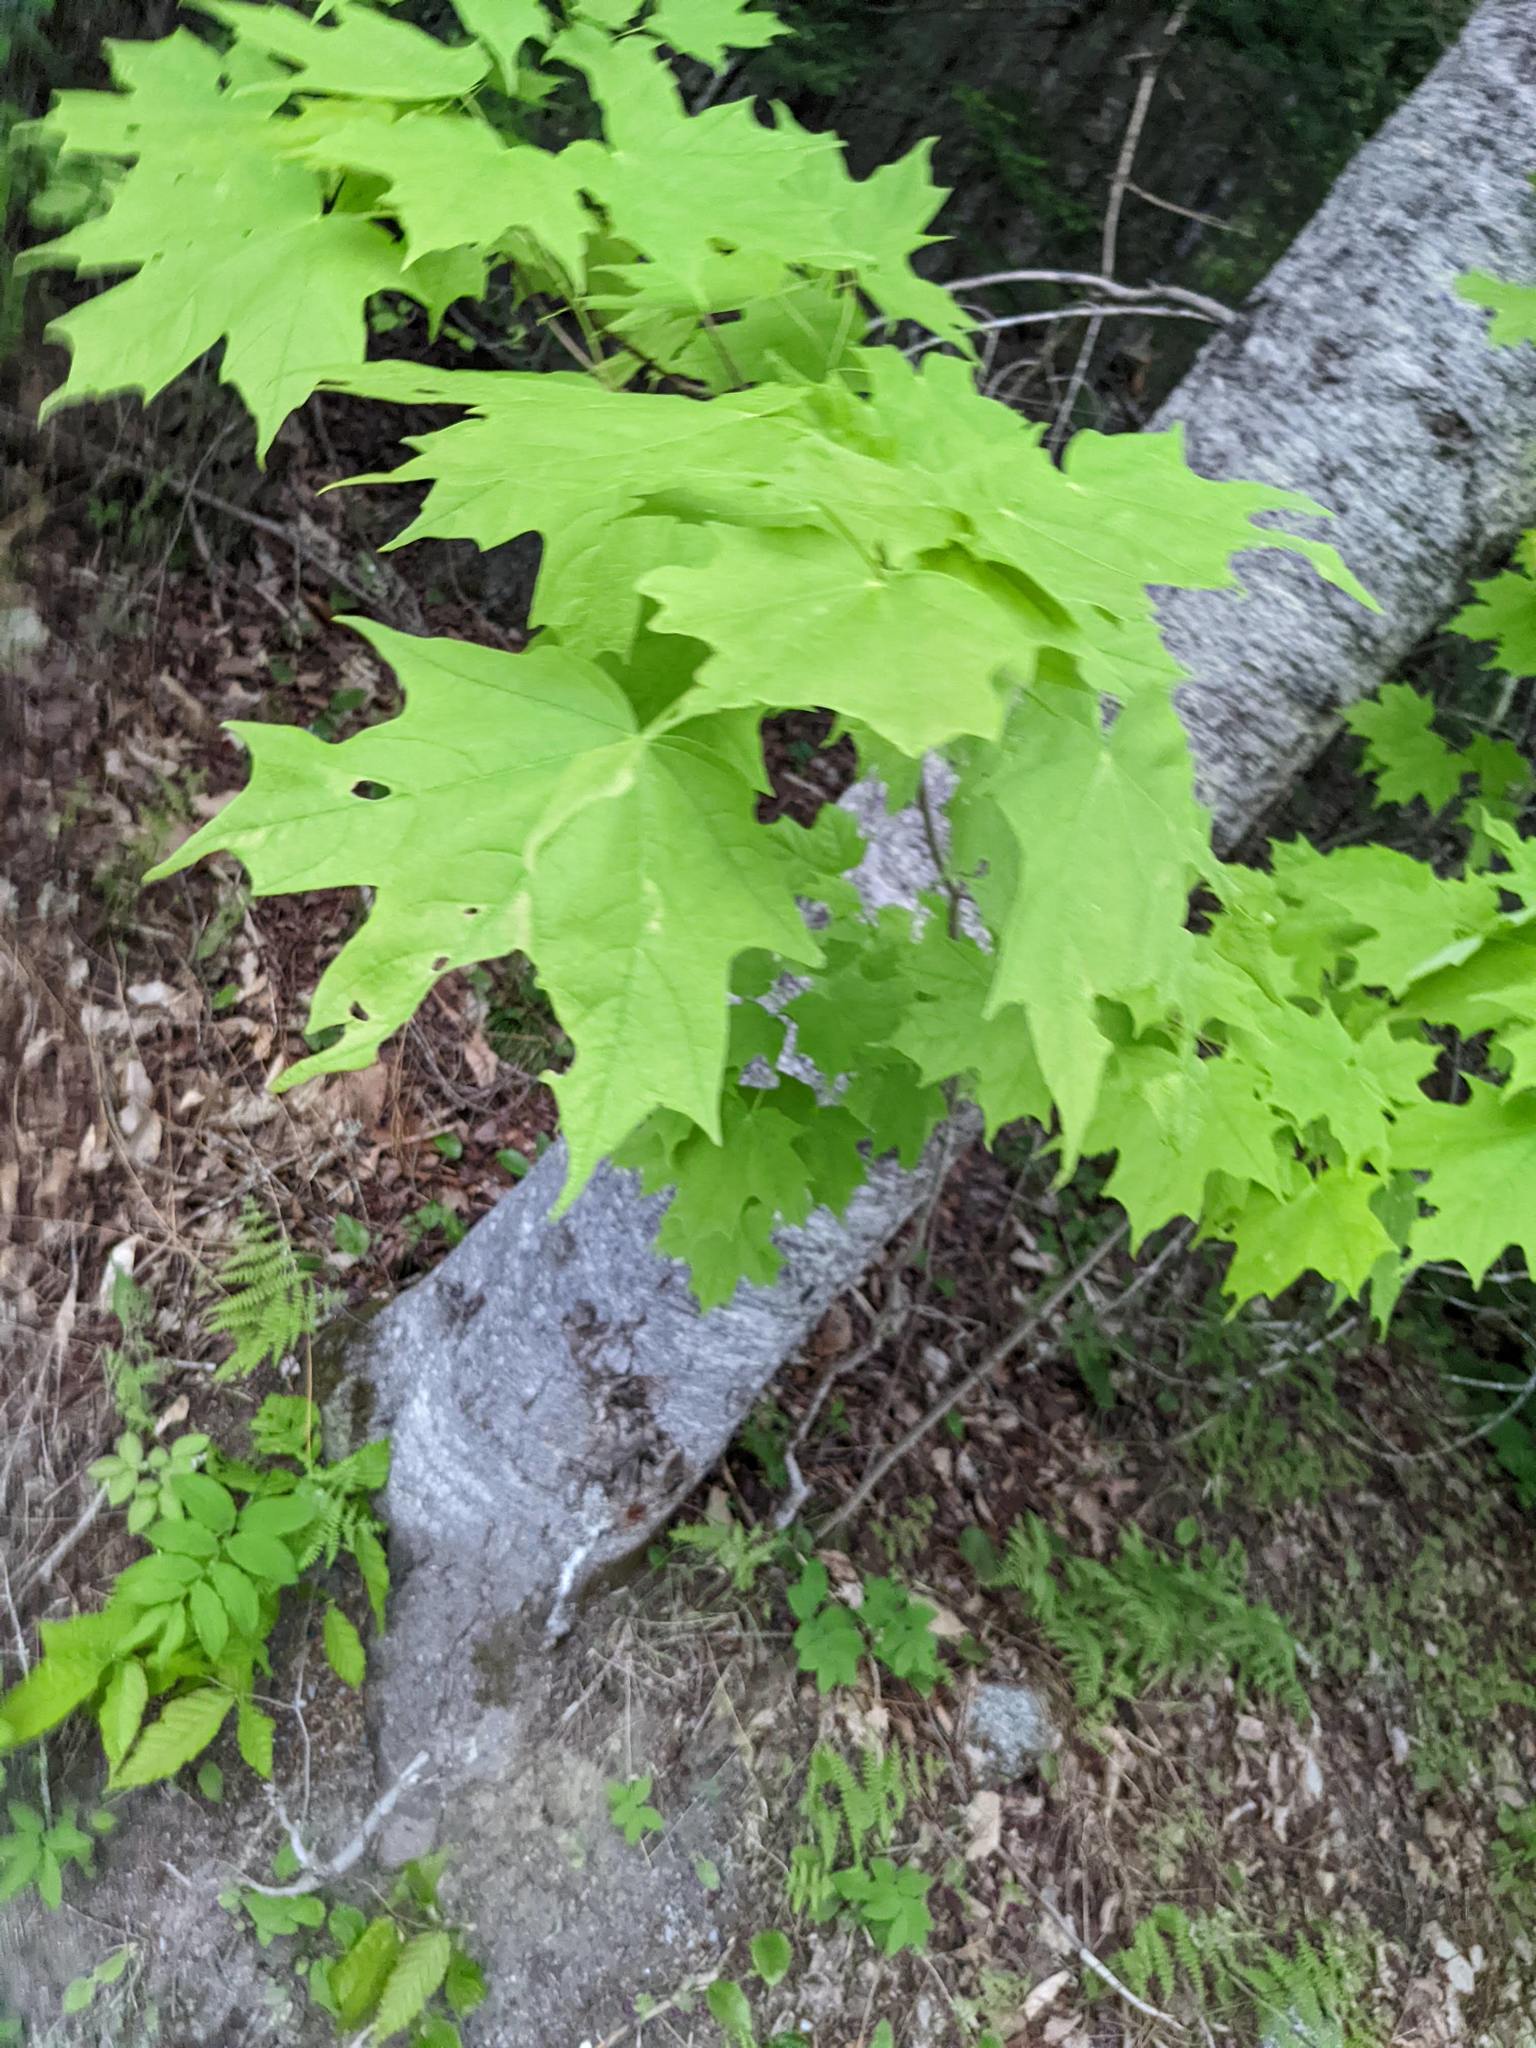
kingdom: Plantae
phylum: Tracheophyta
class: Magnoliopsida
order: Sapindales
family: Sapindaceae
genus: Acer
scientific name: Acer saccharum
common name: Sugar maple
